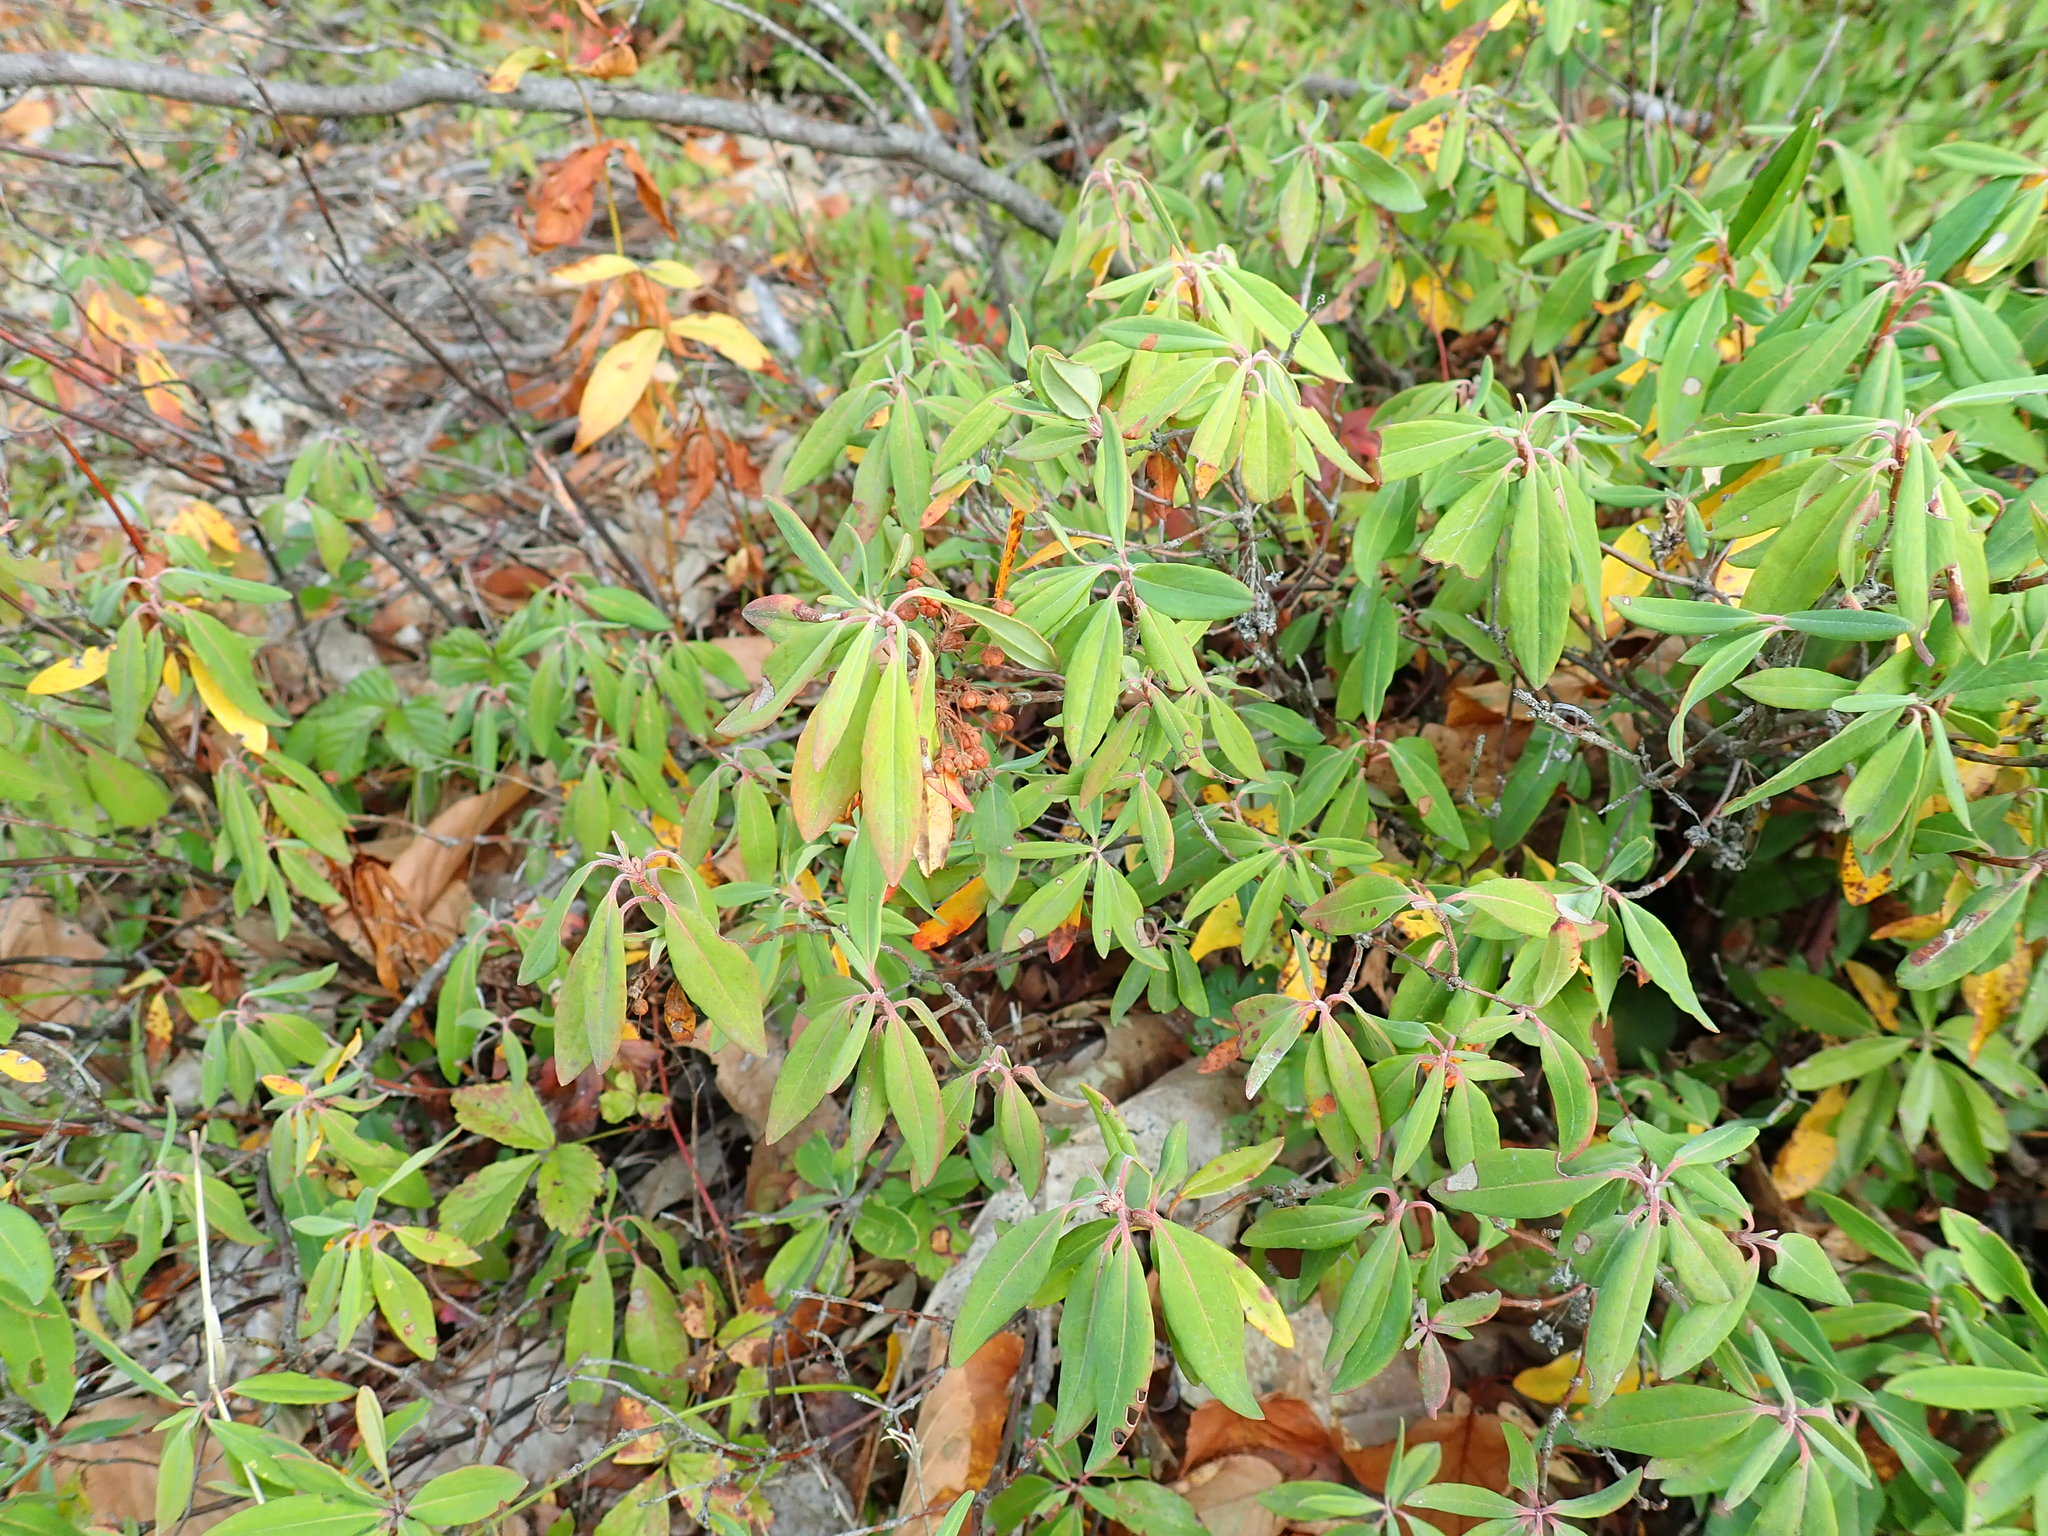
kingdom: Plantae
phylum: Tracheophyta
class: Magnoliopsida
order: Ericales
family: Ericaceae
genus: Kalmia
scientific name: Kalmia angustifolia
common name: Sheep-laurel
